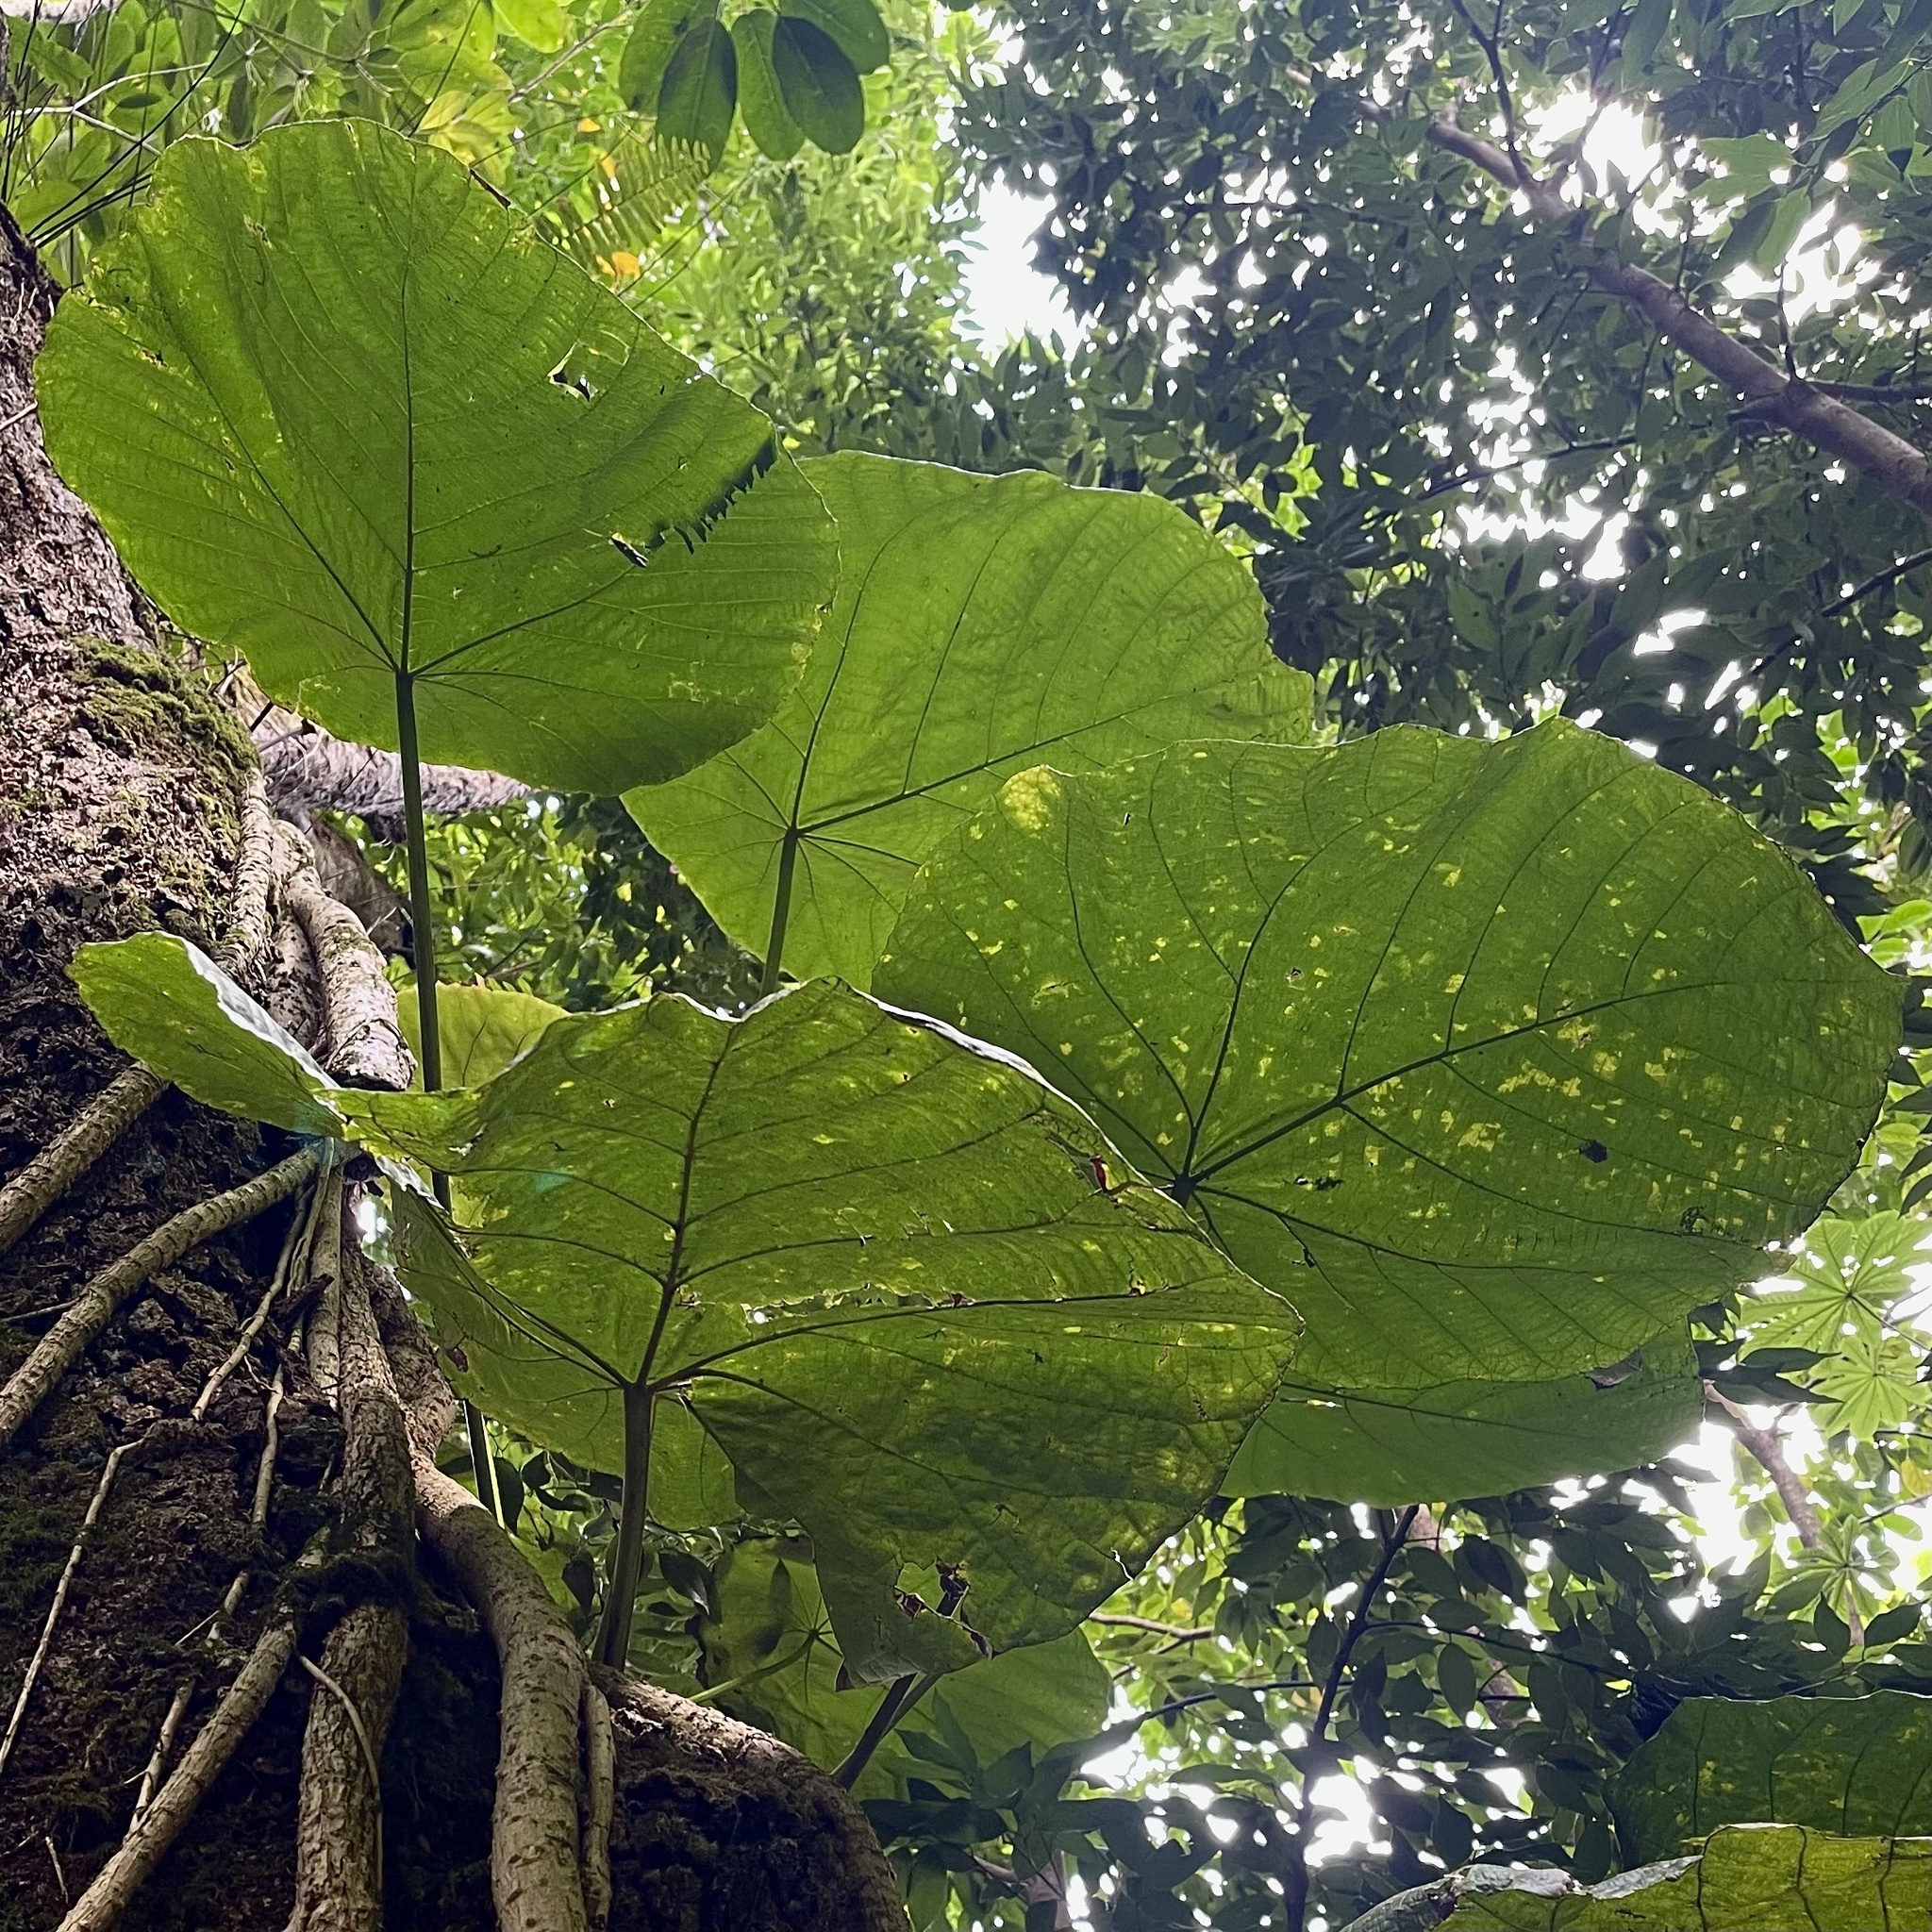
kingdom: Plantae
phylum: Tracheophyta
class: Magnoliopsida
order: Malpighiales
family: Euphorbiaceae
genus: Macaranga
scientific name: Macaranga mappa
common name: Pengua
